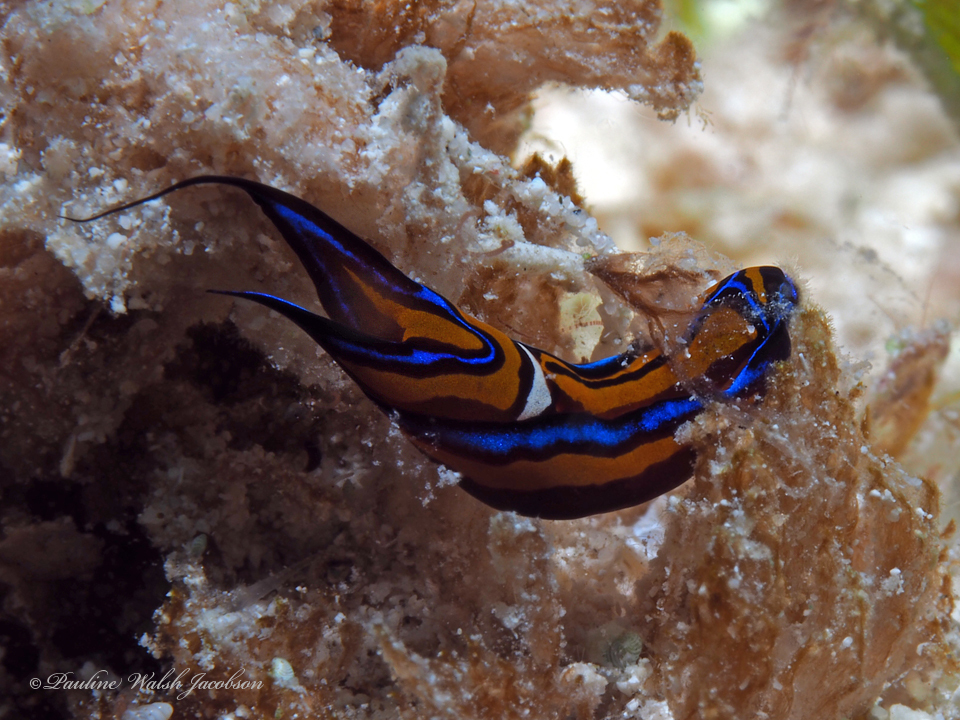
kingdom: Animalia
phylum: Mollusca
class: Gastropoda
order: Cephalaspidea
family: Aglajidae
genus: Chelidonura
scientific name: Chelidonura hirundinina
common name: Leech headshield slug
